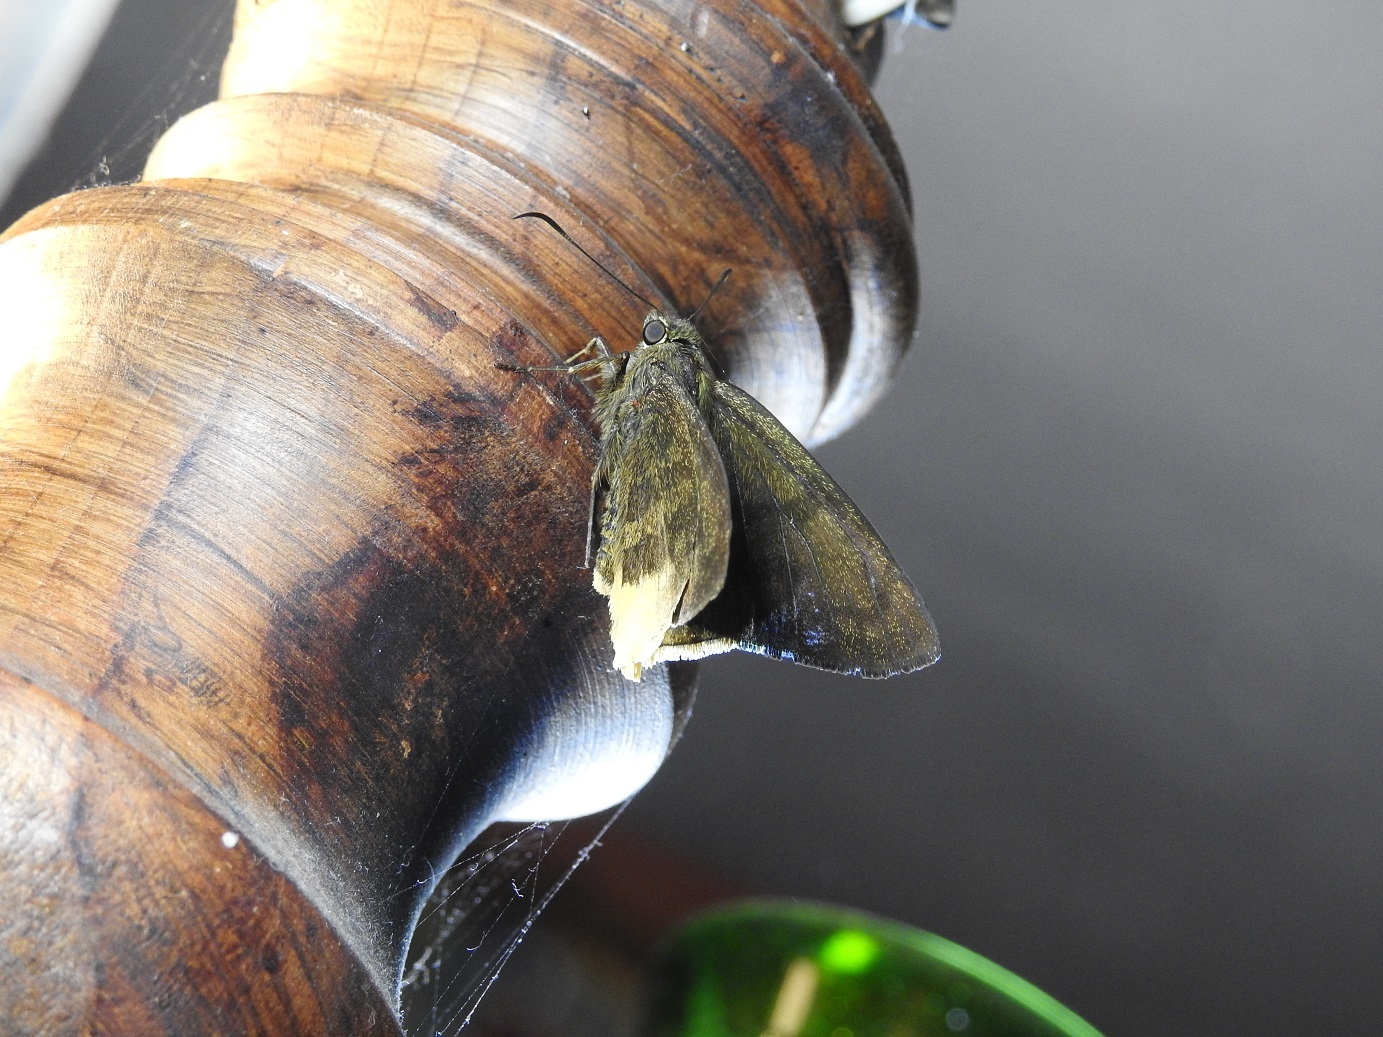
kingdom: Animalia
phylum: Arthropoda
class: Insecta
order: Lepidoptera
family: Hesperiidae
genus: Typhedanus
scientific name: Typhedanus ampyx
